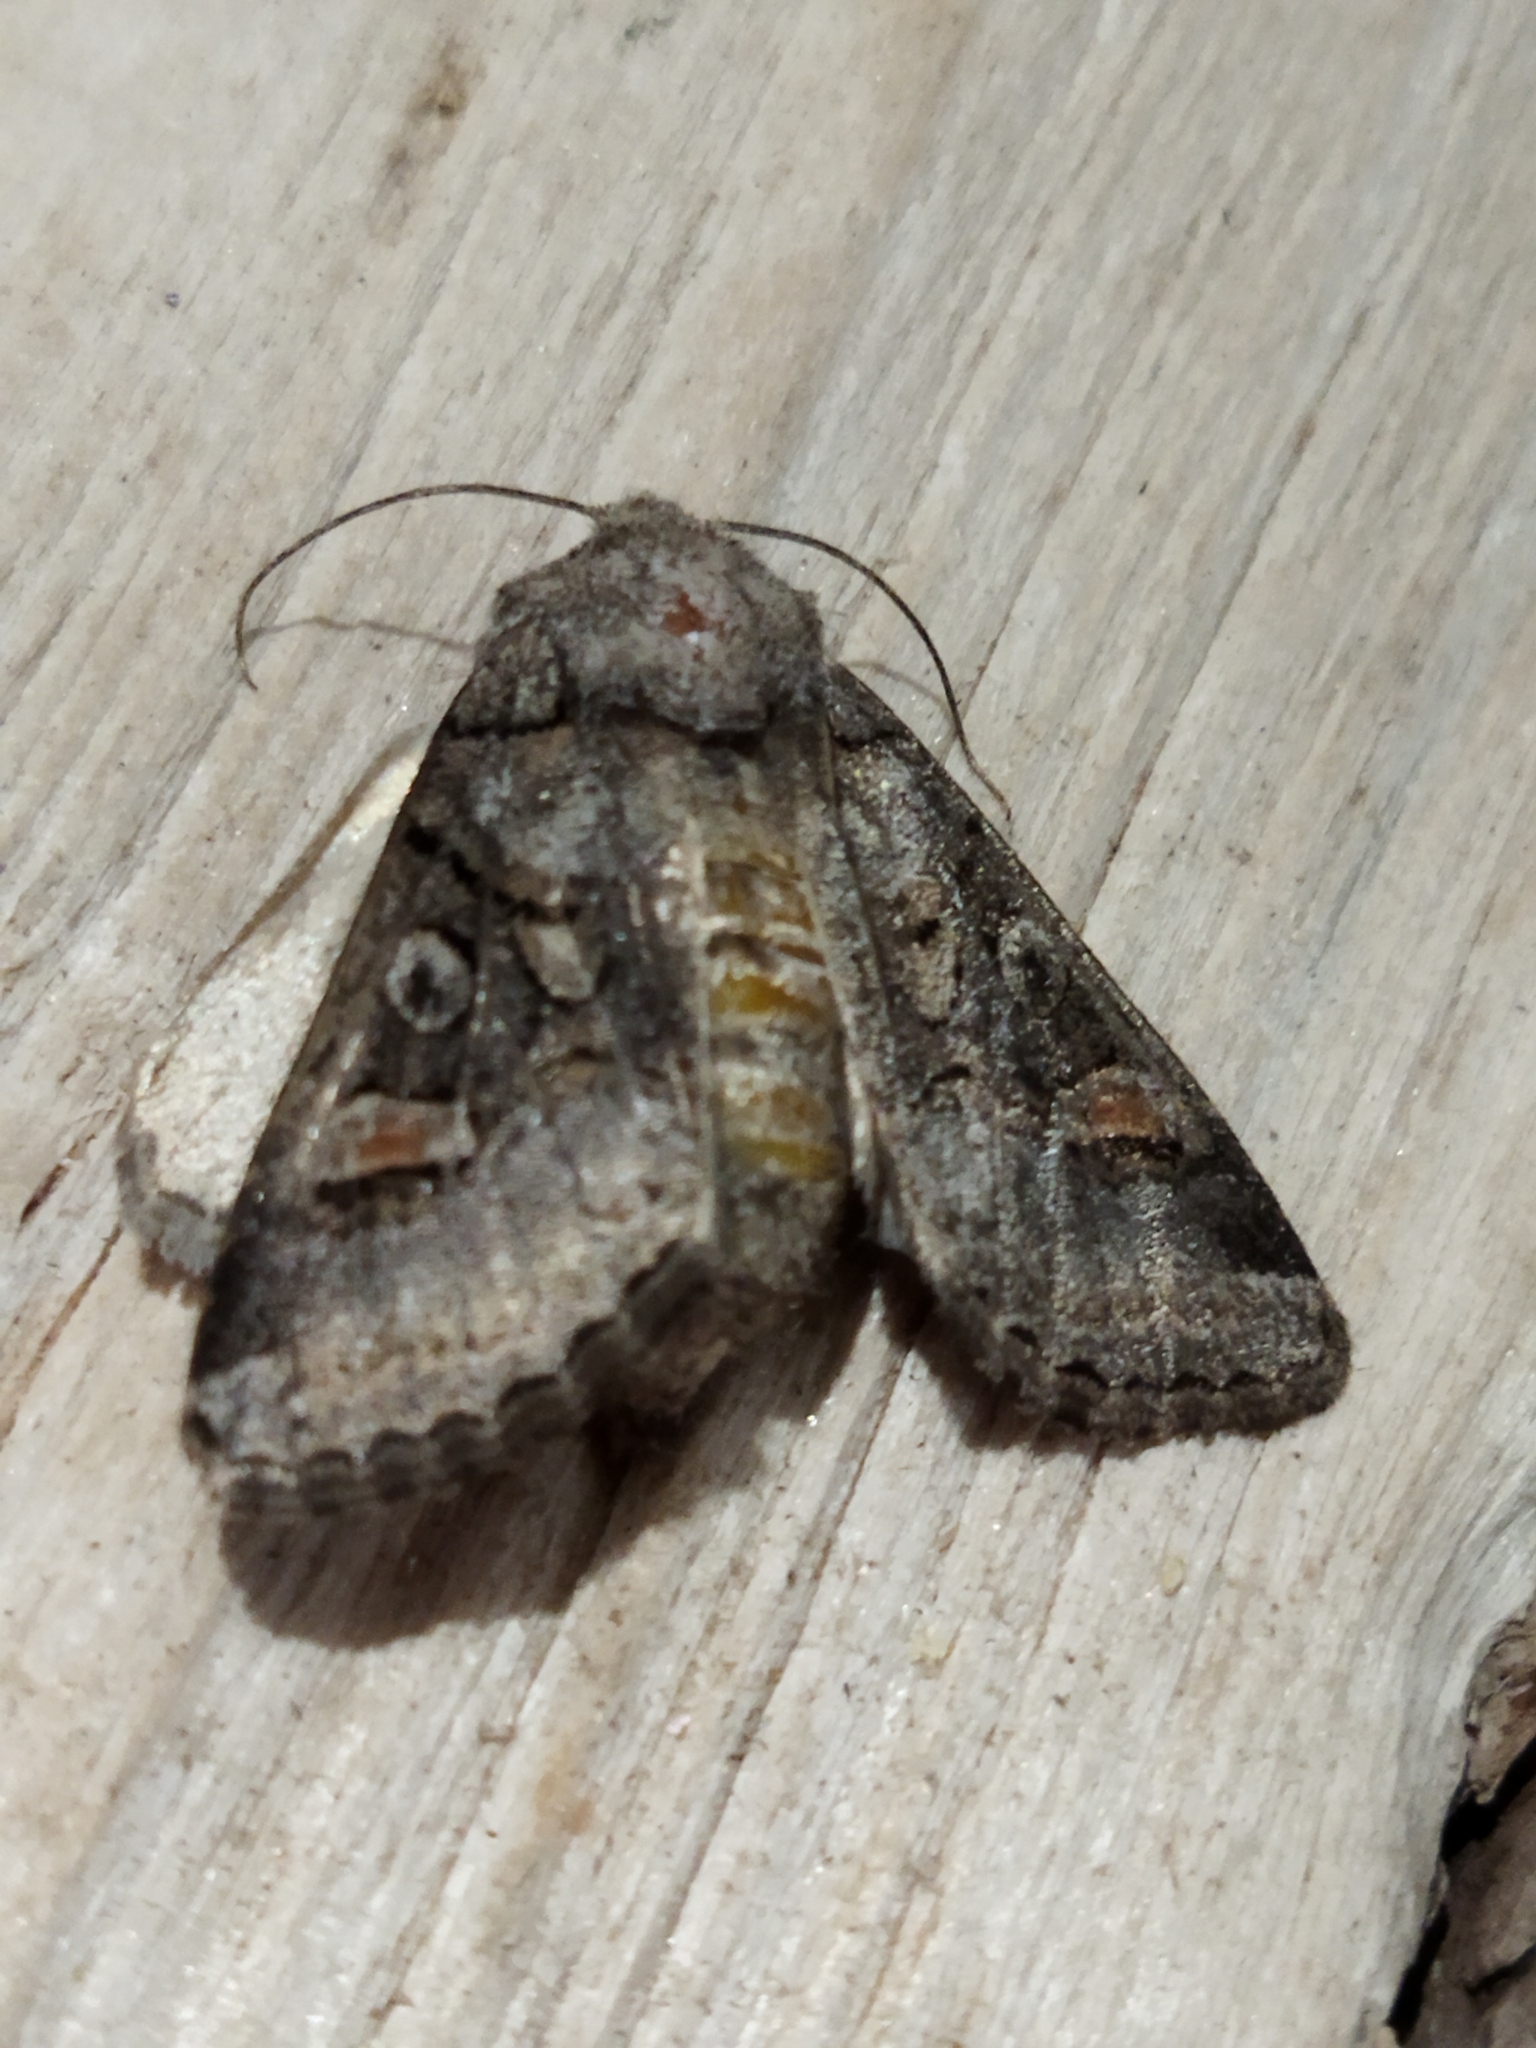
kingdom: Animalia
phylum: Arthropoda
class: Insecta
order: Lepidoptera
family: Noctuidae
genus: Cleoceris
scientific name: Cleoceris scoriacea
